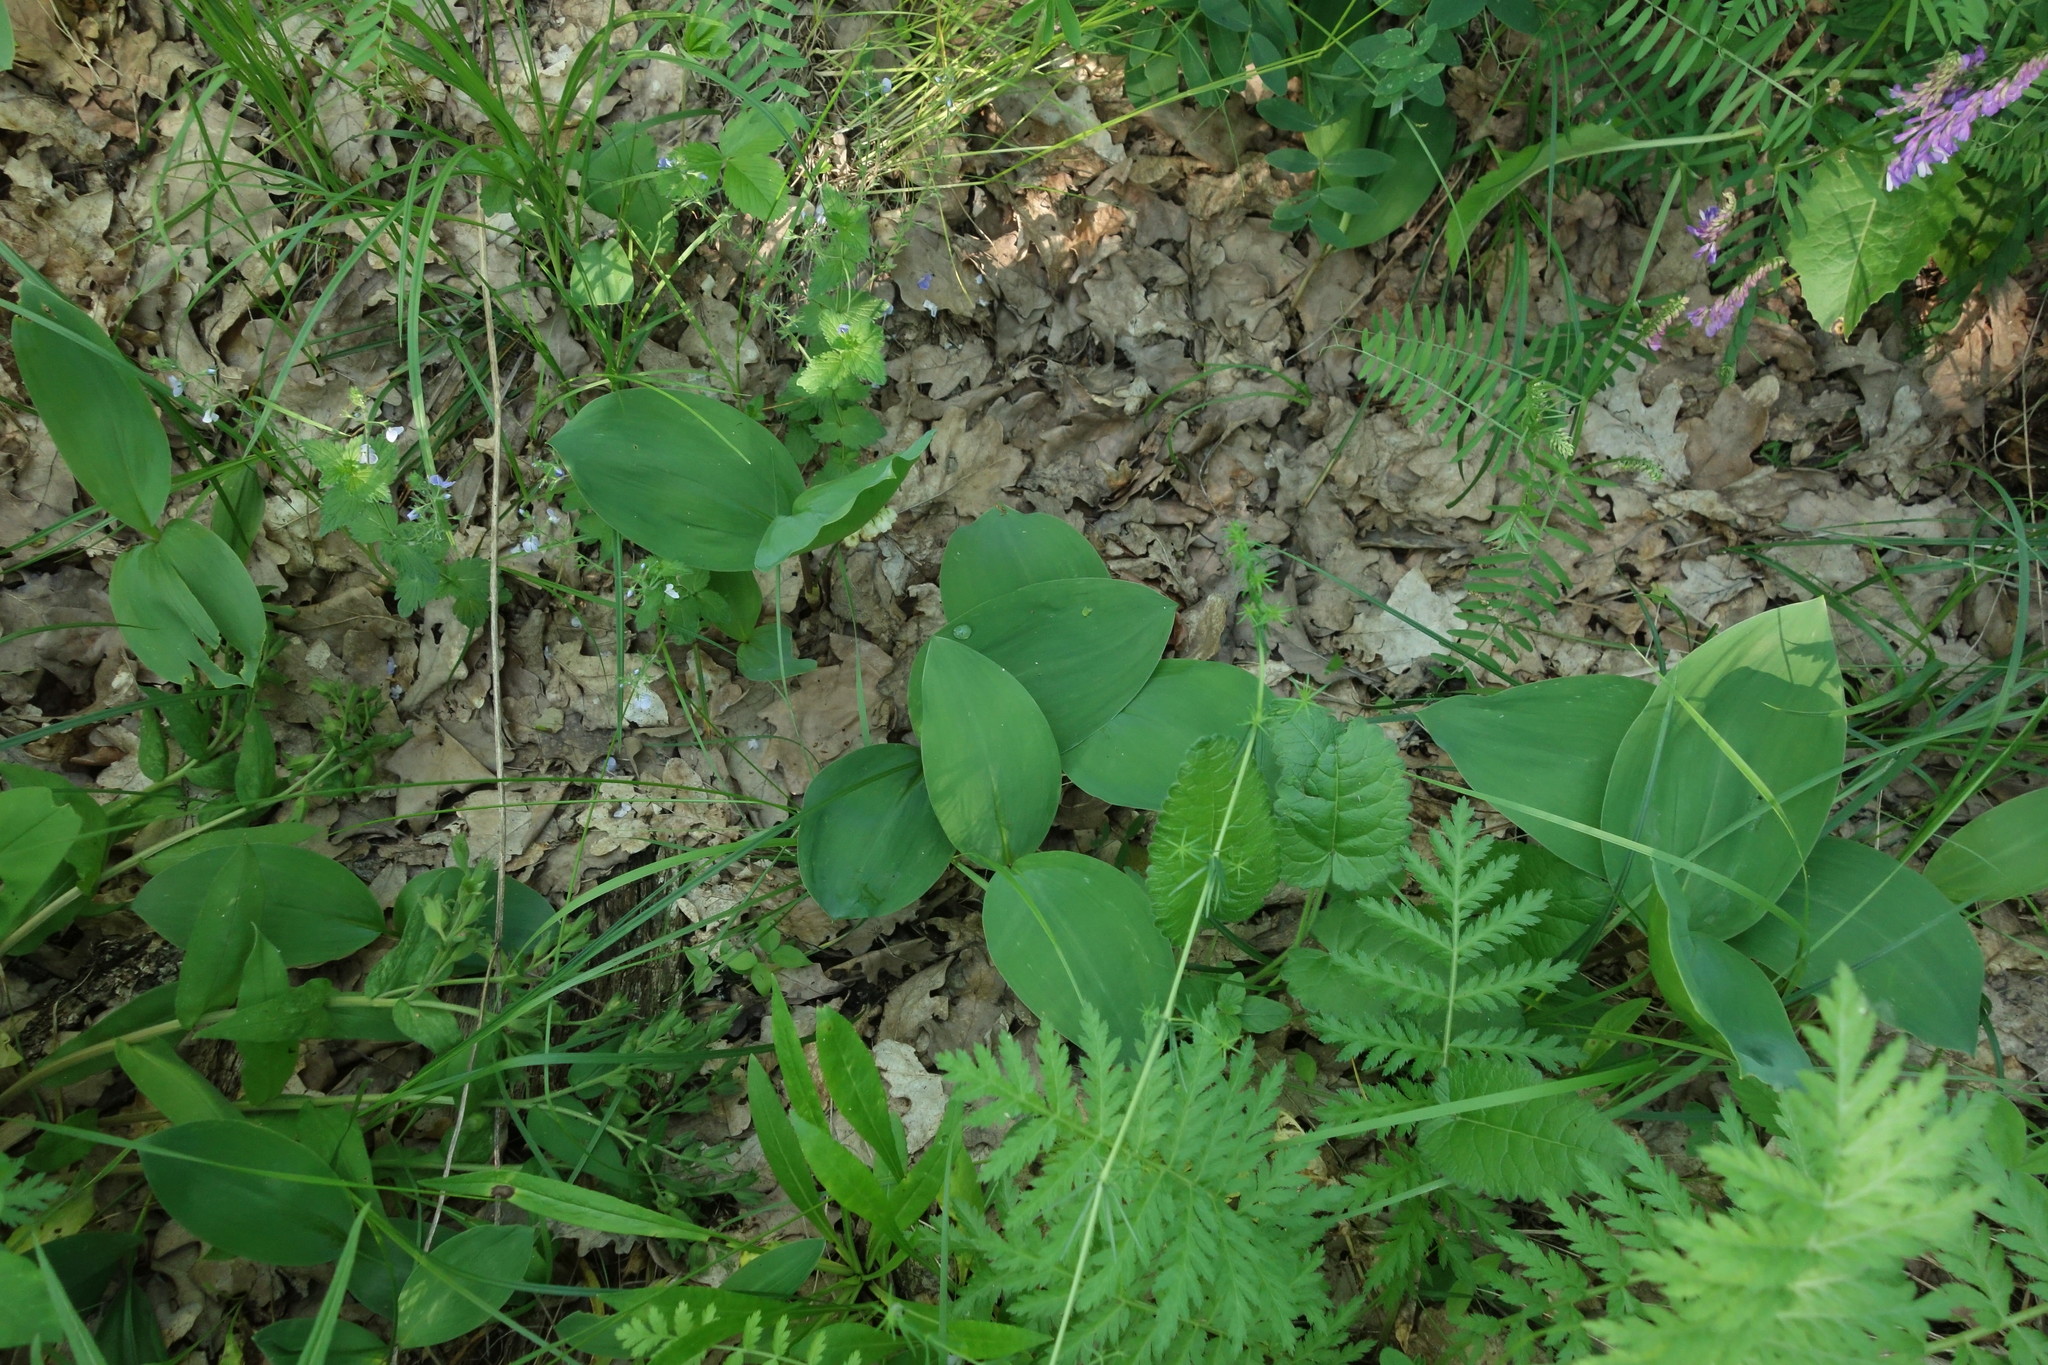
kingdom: Plantae
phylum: Tracheophyta
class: Liliopsida
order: Asparagales
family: Asparagaceae
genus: Convallaria
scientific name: Convallaria majalis
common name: Lily-of-the-valley
